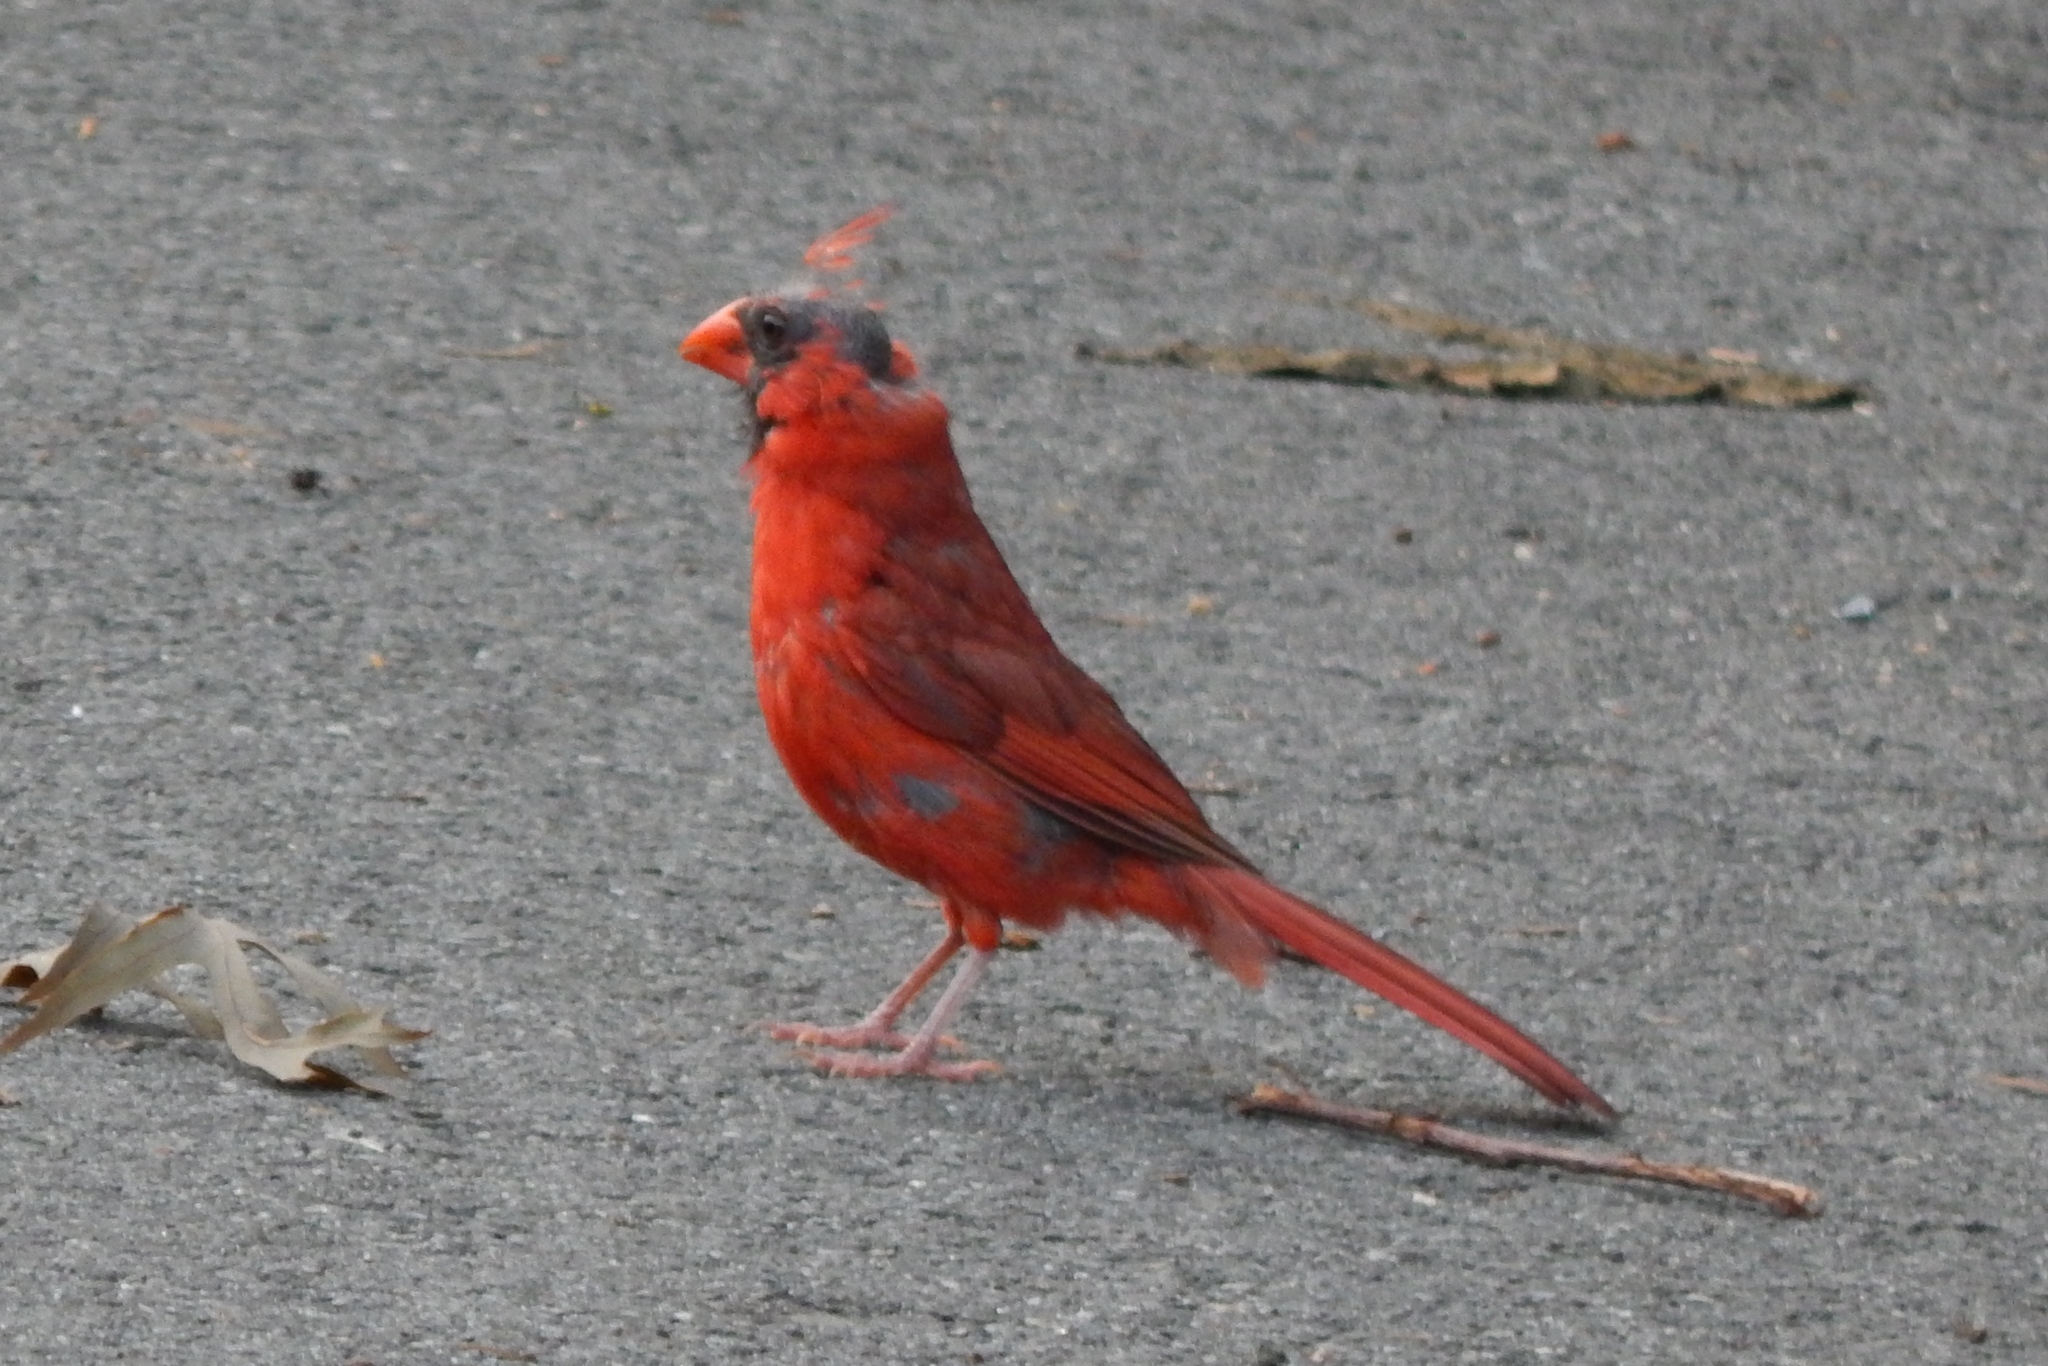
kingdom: Animalia
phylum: Chordata
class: Aves
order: Passeriformes
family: Cardinalidae
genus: Cardinalis
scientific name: Cardinalis cardinalis
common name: Northern cardinal
